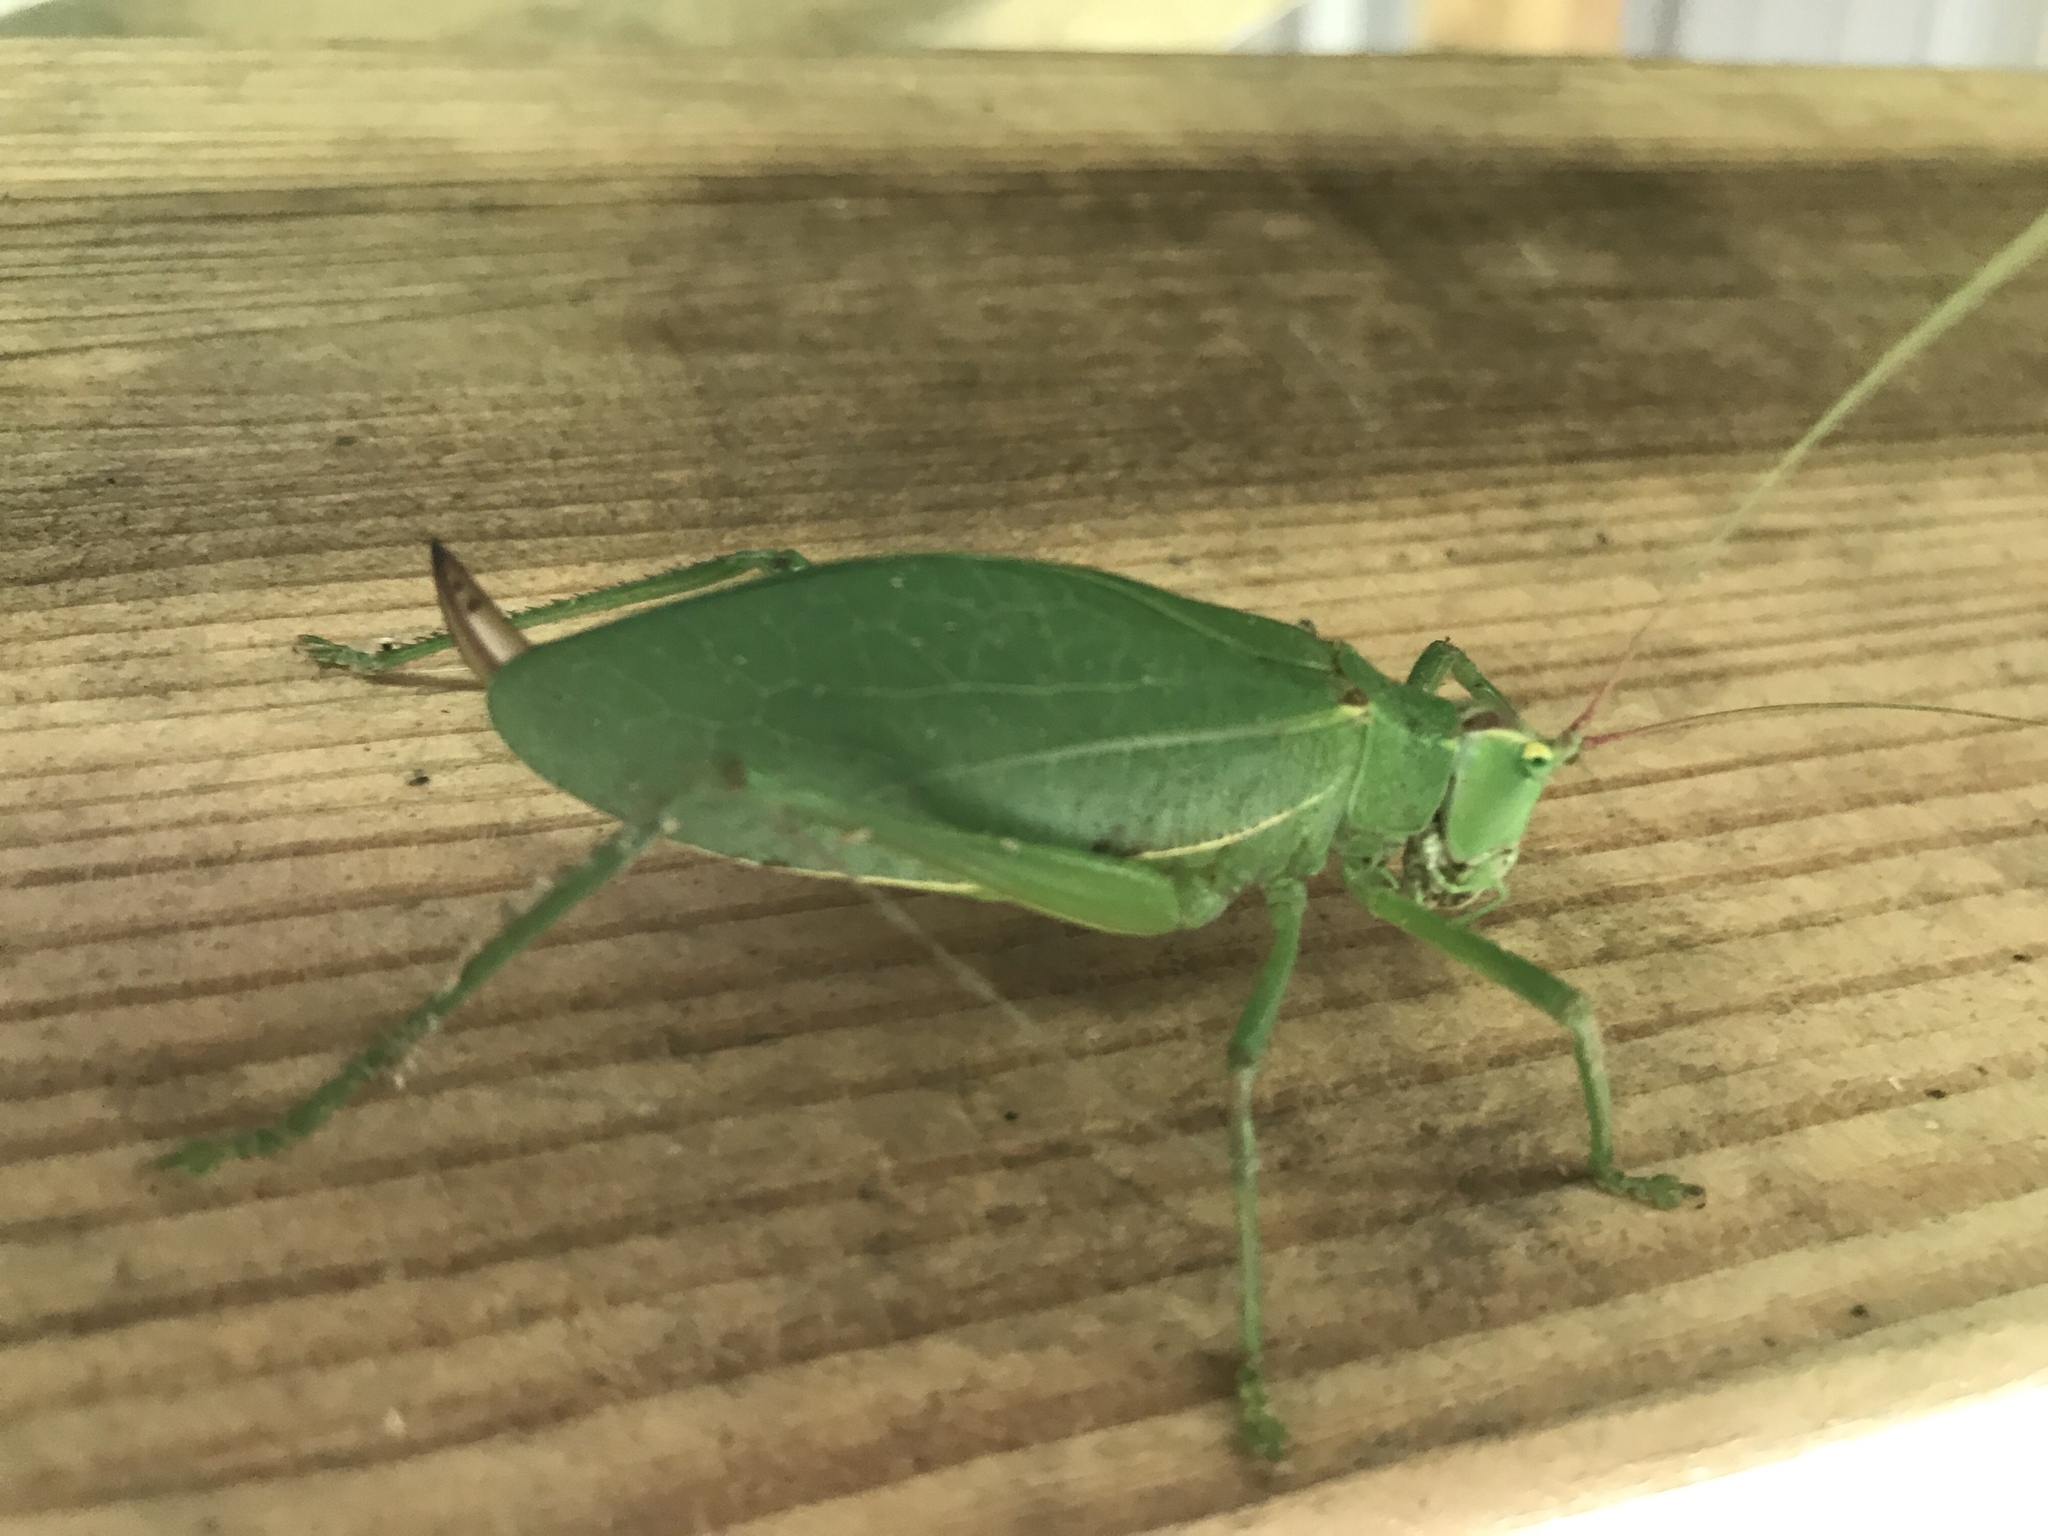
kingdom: Animalia
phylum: Arthropoda
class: Insecta
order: Orthoptera
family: Tettigoniidae
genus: Pterophylla
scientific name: Pterophylla camellifolia
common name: Common true katydid
